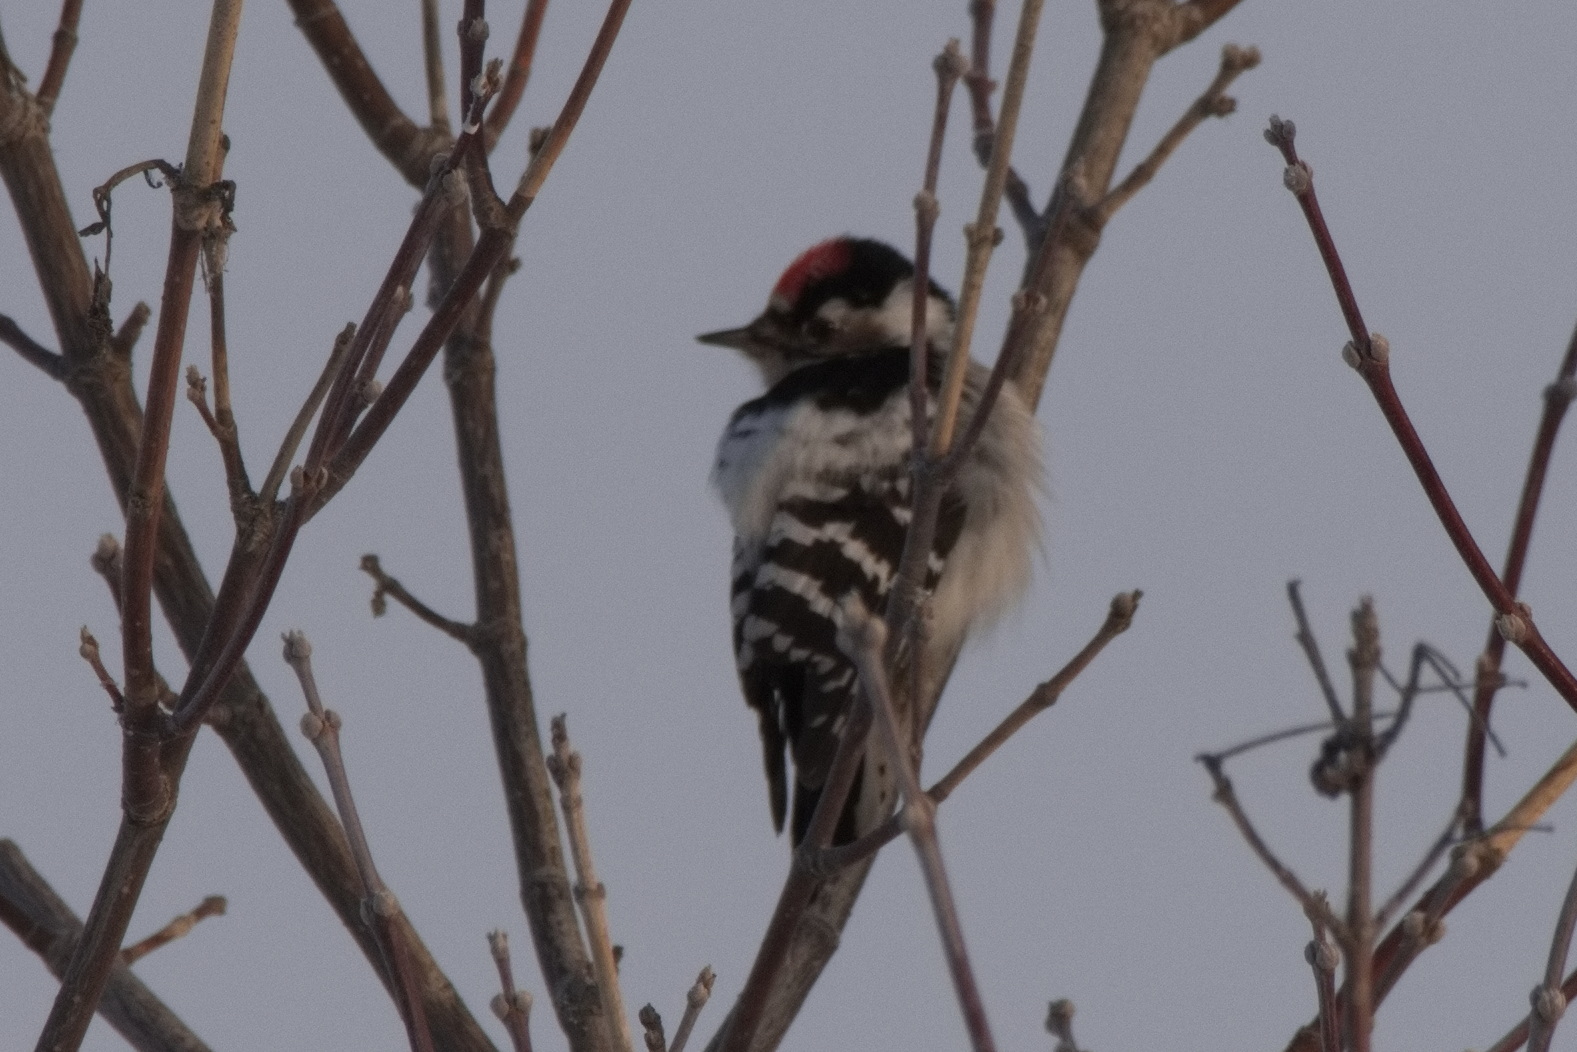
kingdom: Animalia
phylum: Chordata
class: Aves
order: Piciformes
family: Picidae
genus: Dryobates
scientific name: Dryobates minor
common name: Lesser spotted woodpecker
